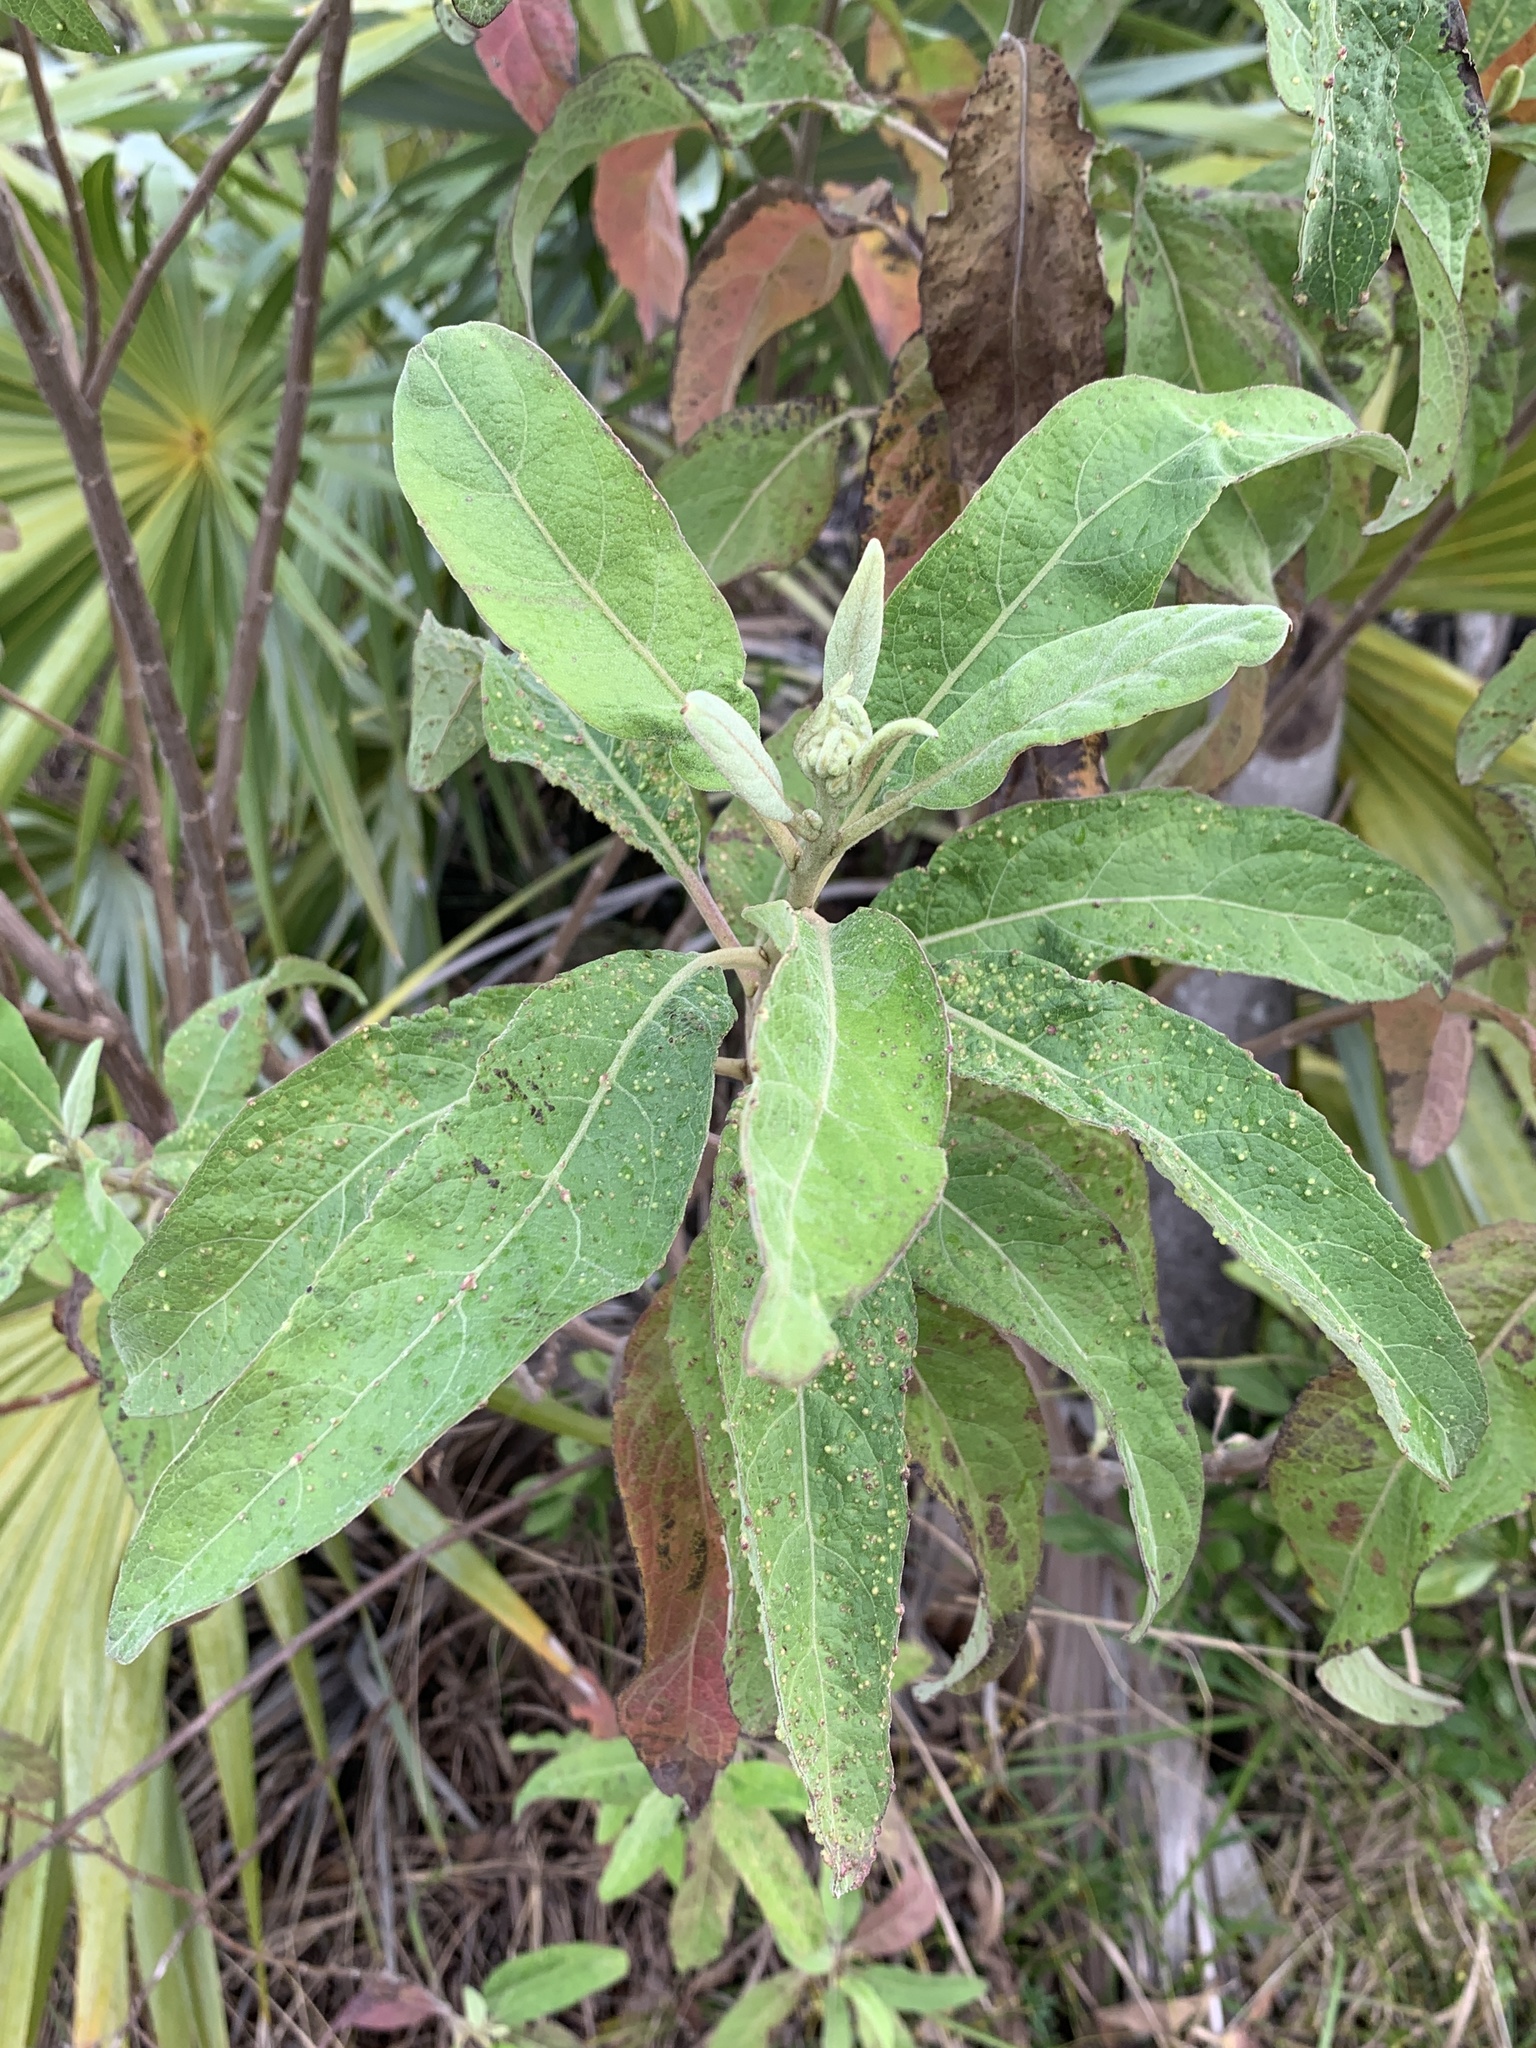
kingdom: Plantae
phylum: Tracheophyta
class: Magnoliopsida
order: Asterales
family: Asteraceae
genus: Pluchea
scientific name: Pluchea carolinensis
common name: Marsh fleabane
